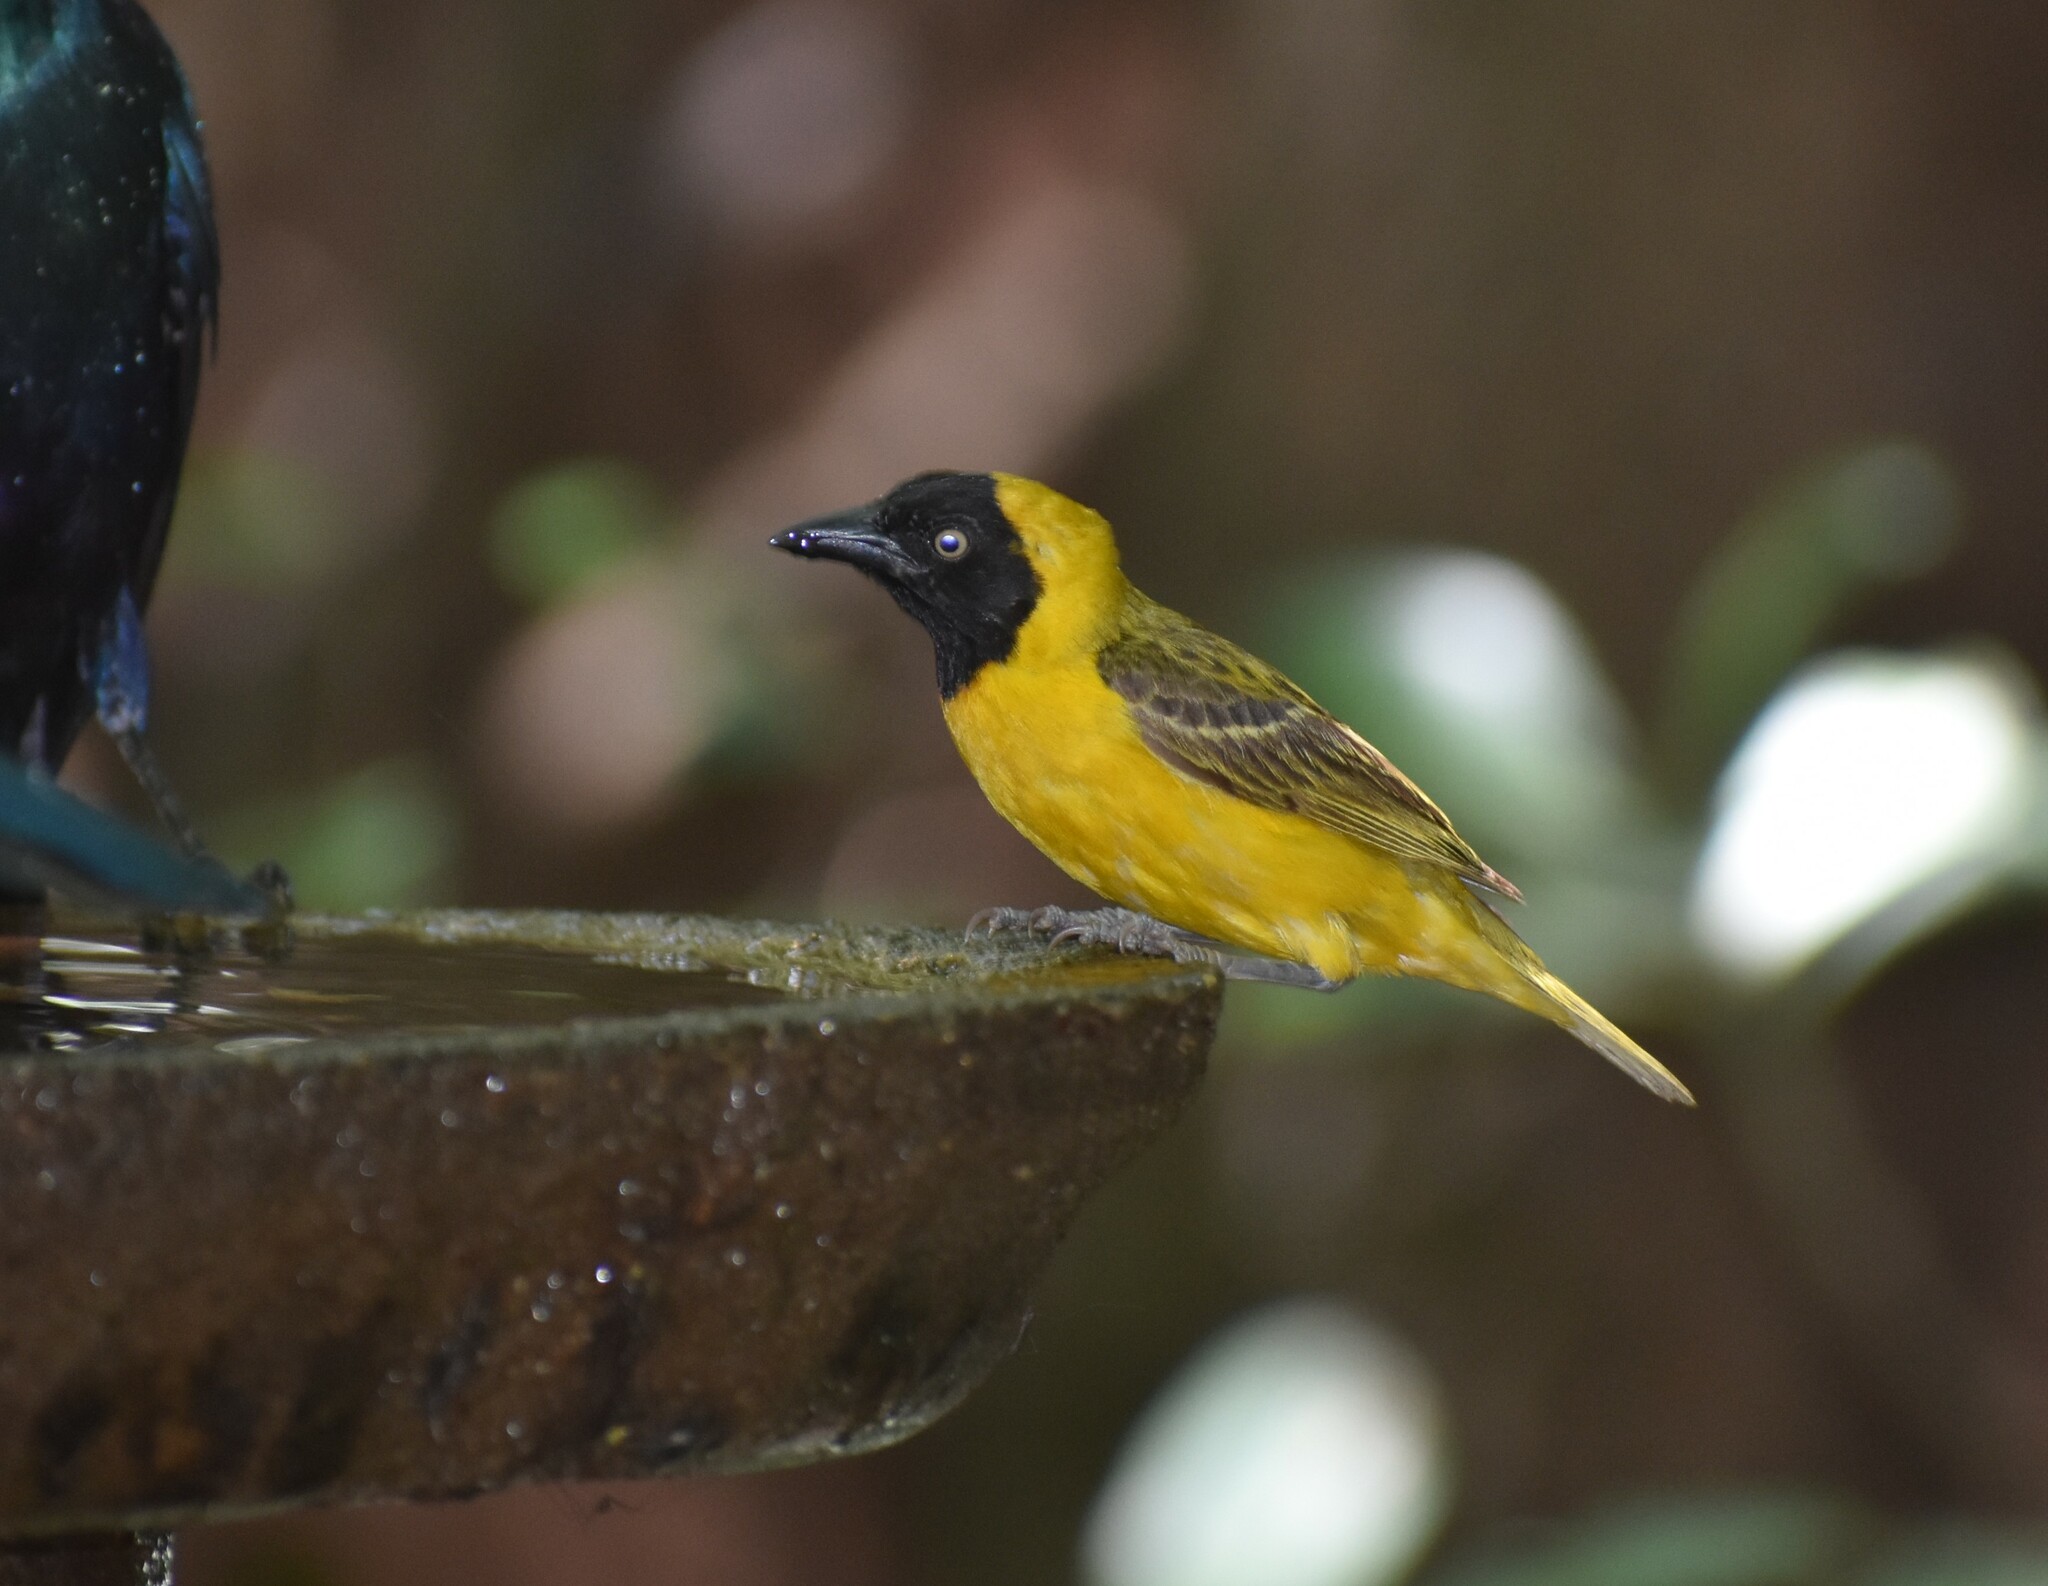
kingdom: Animalia
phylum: Chordata
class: Aves
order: Passeriformes
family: Ploceidae
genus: Ploceus
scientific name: Ploceus intermedius
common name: Lesser masked weaver
